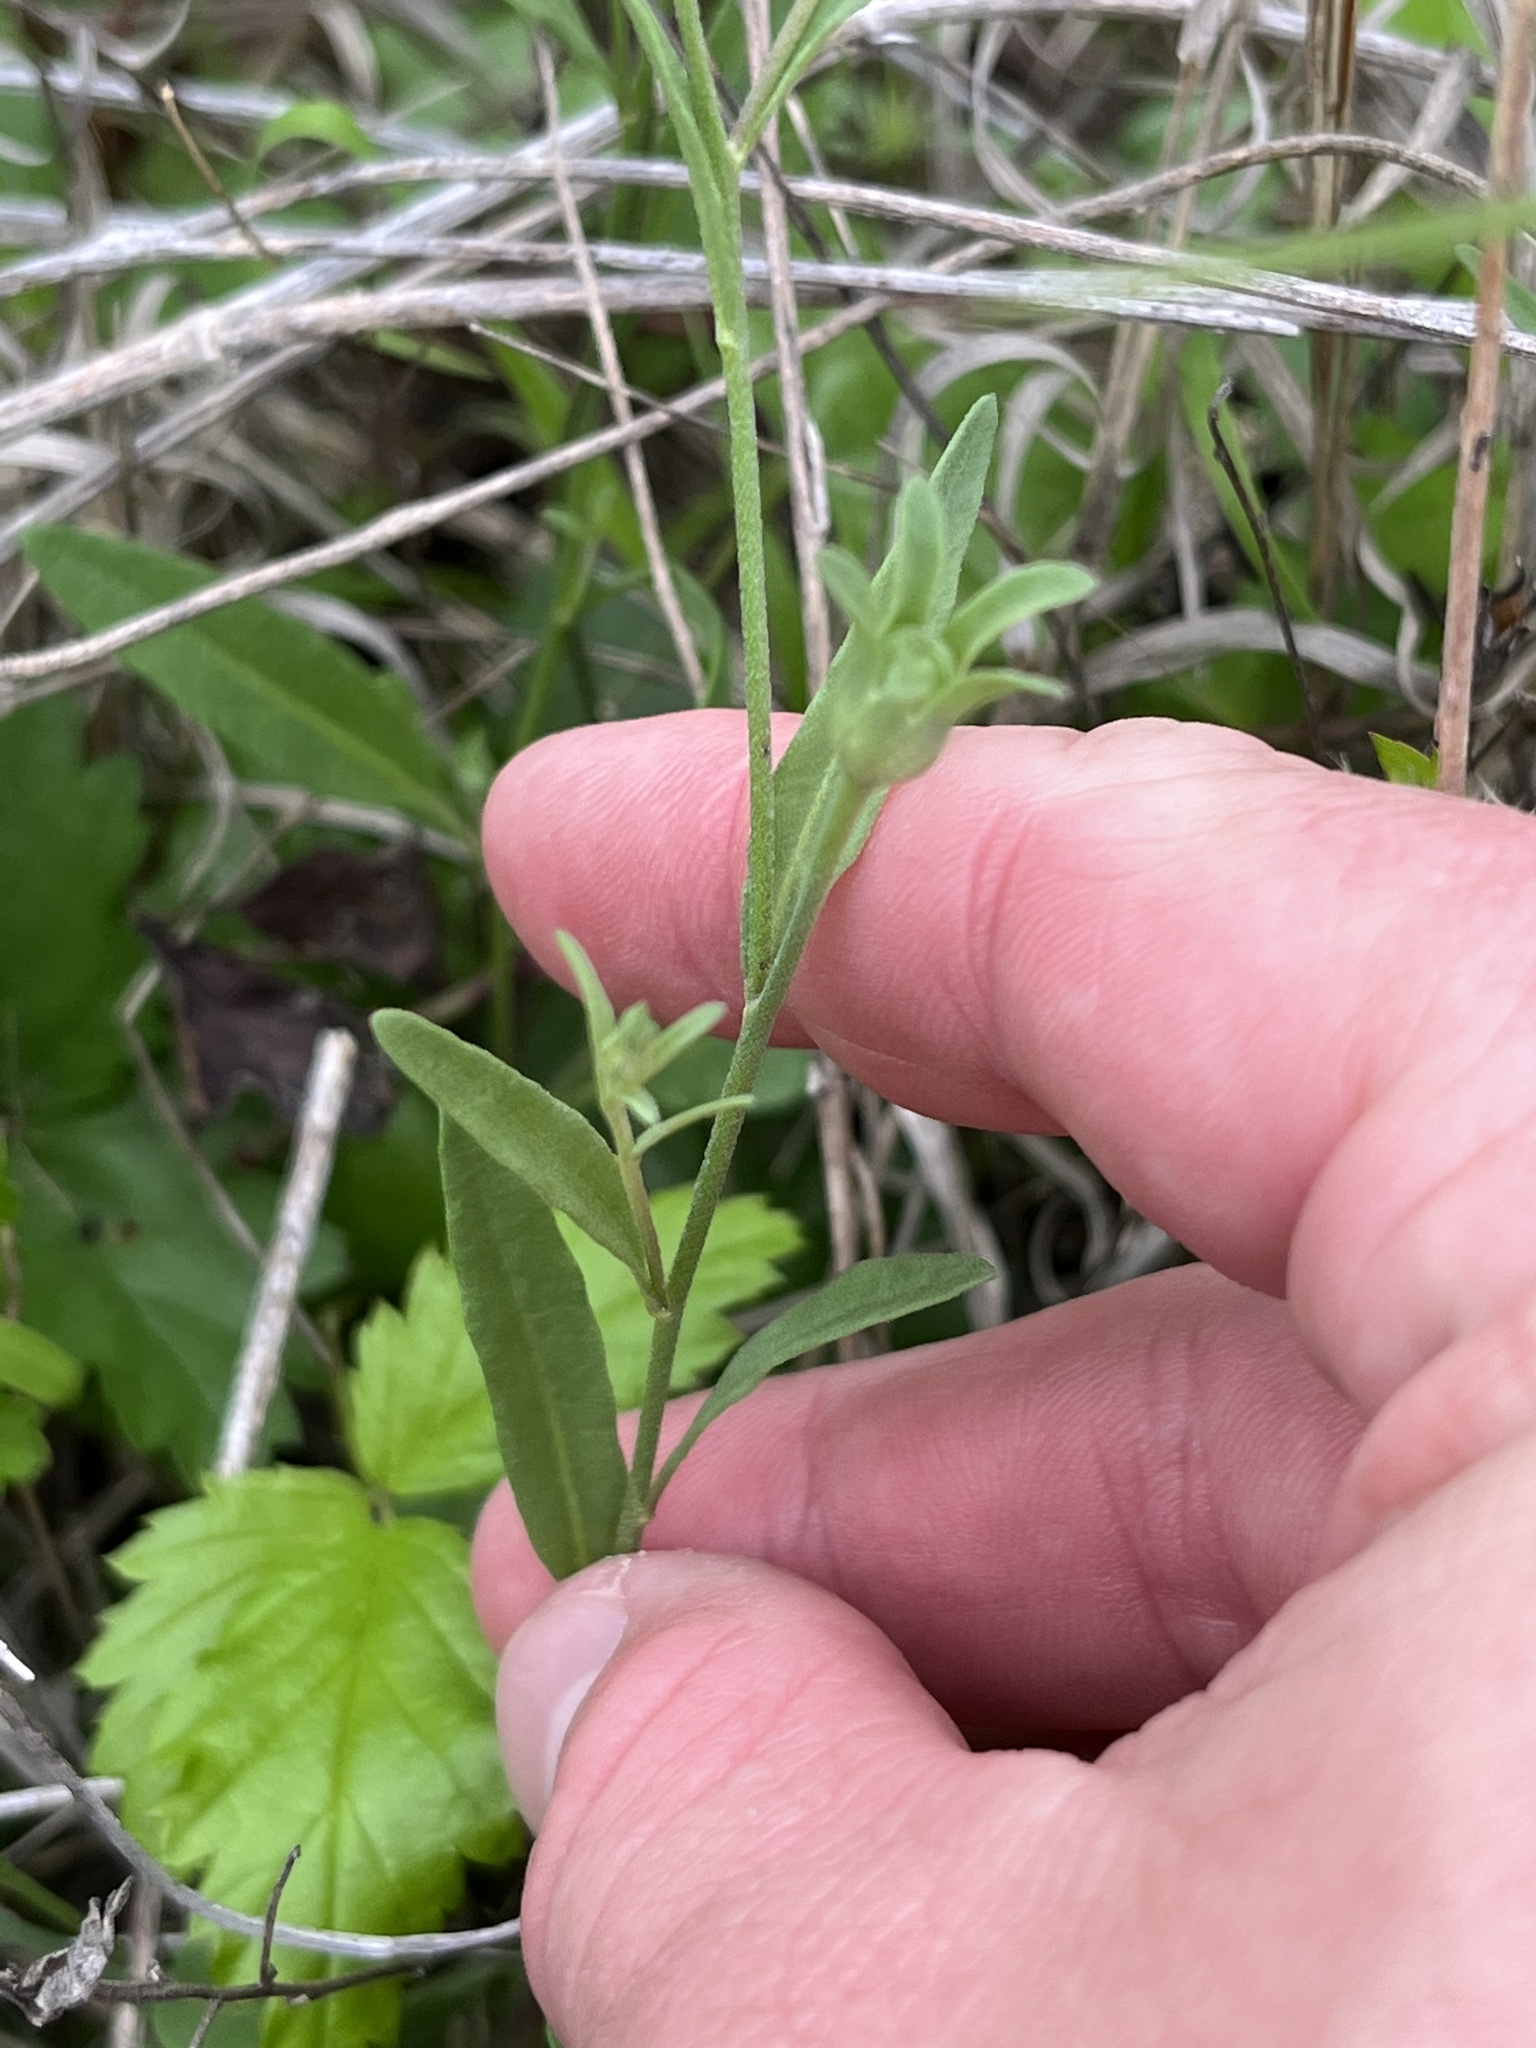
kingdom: Plantae
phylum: Tracheophyta
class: Magnoliopsida
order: Solanales
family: Solanaceae
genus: Salpiglossis
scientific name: Salpiglossis erecta
